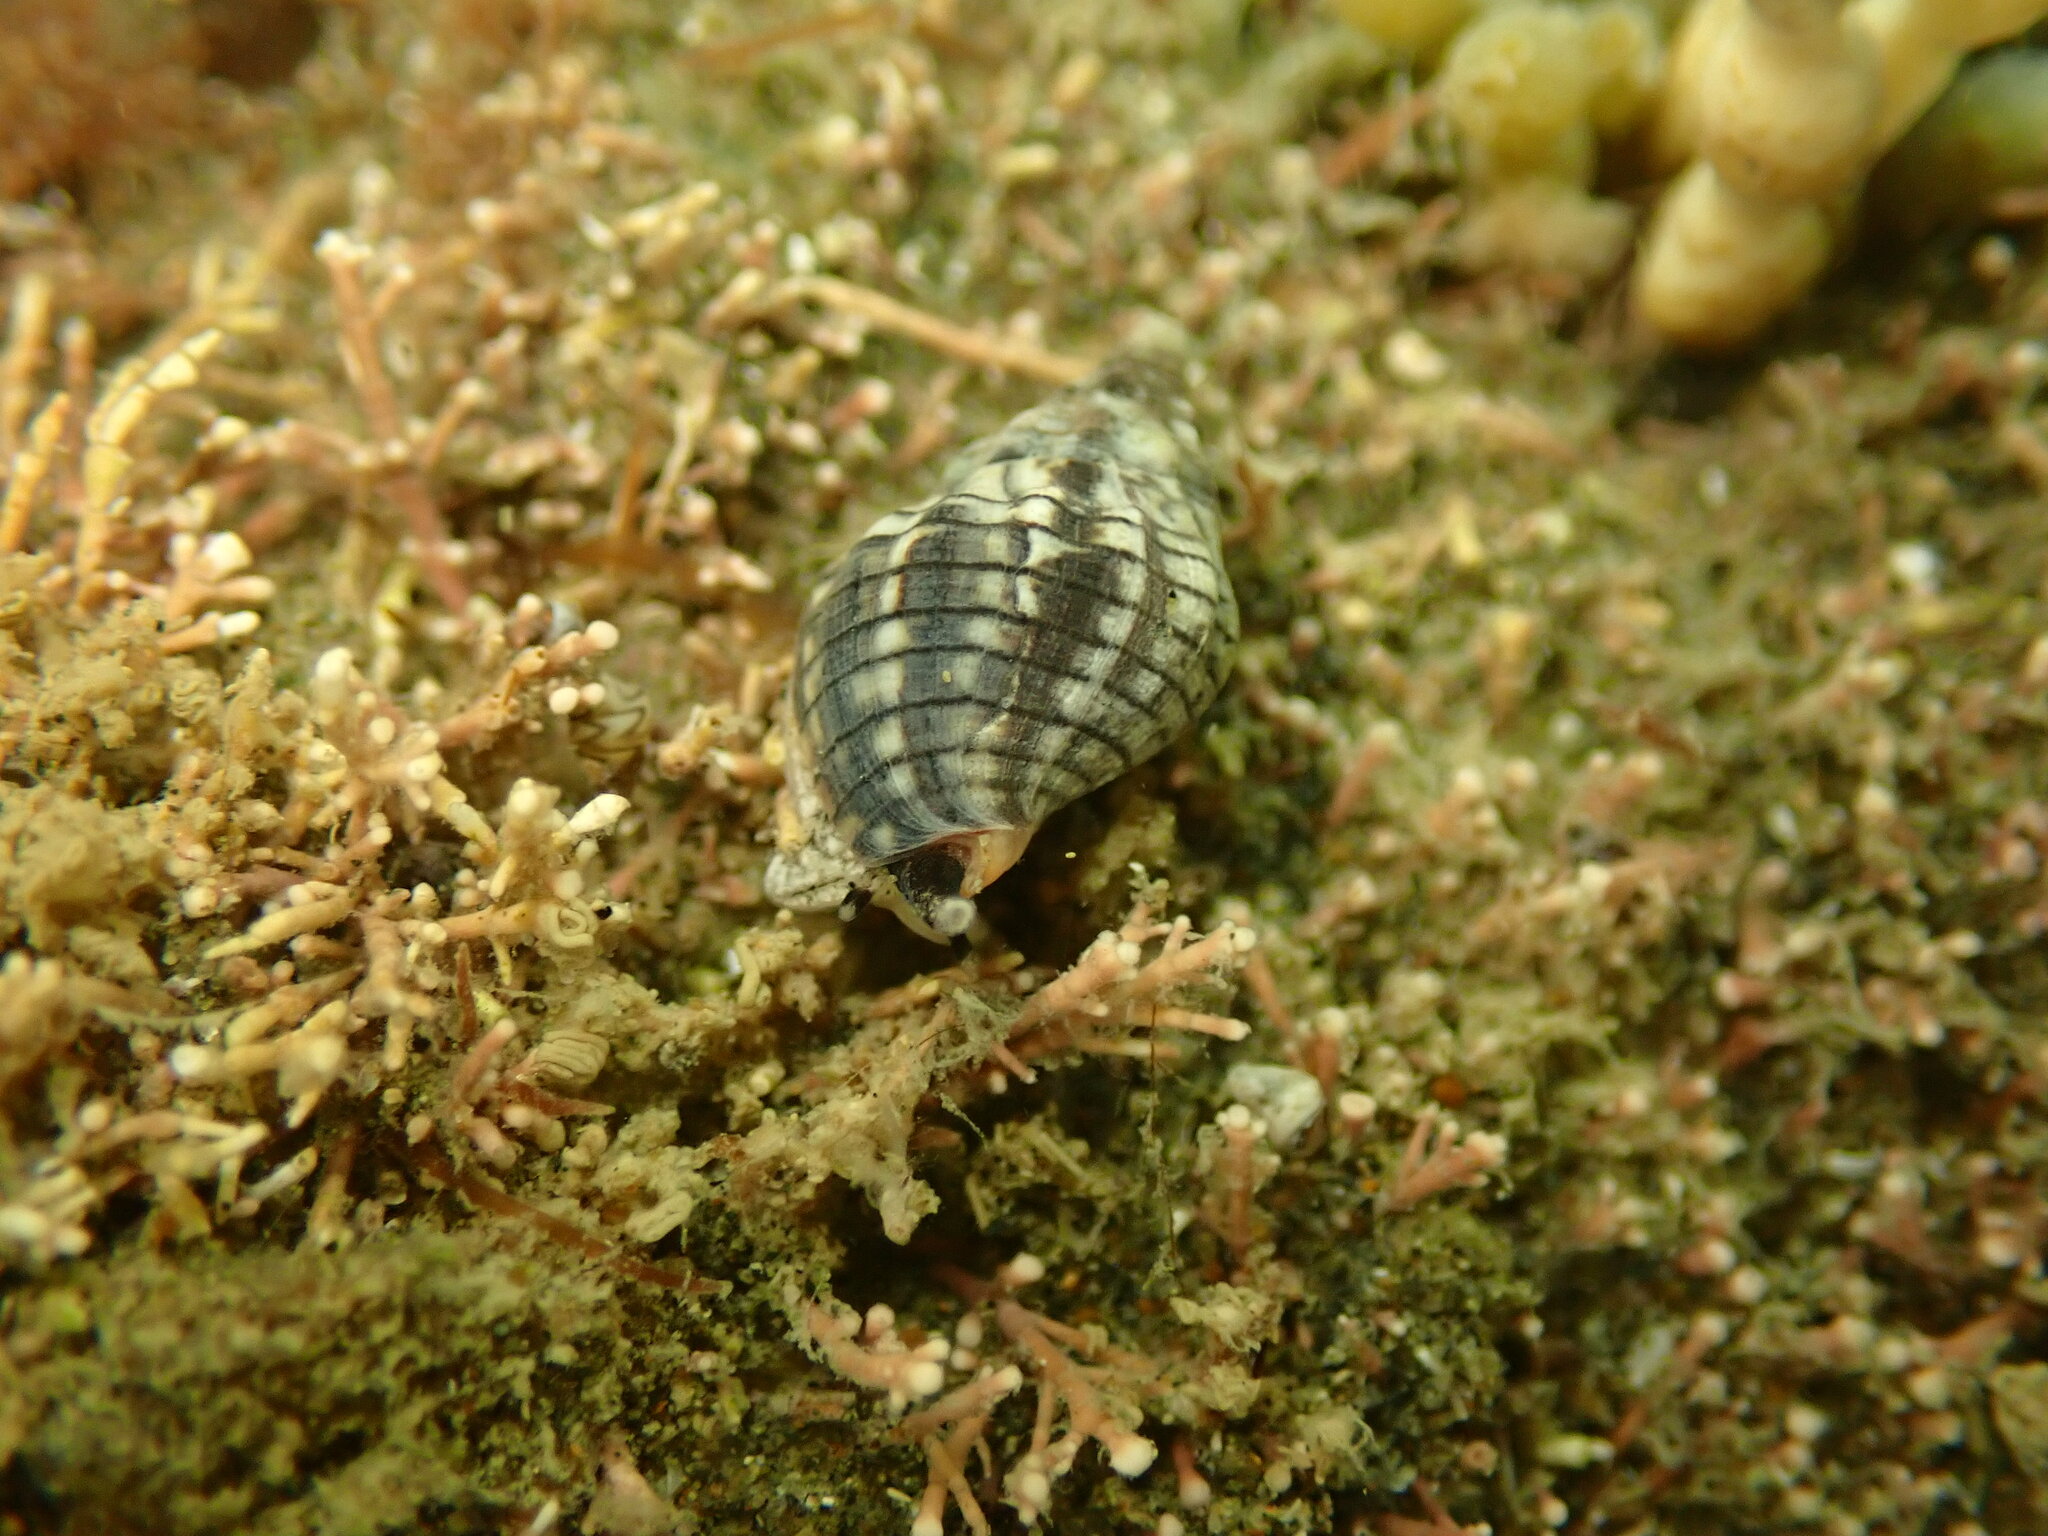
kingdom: Animalia
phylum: Mollusca
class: Gastropoda
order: Neogastropoda
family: Cominellidae
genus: Cominella
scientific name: Cominella virgata
